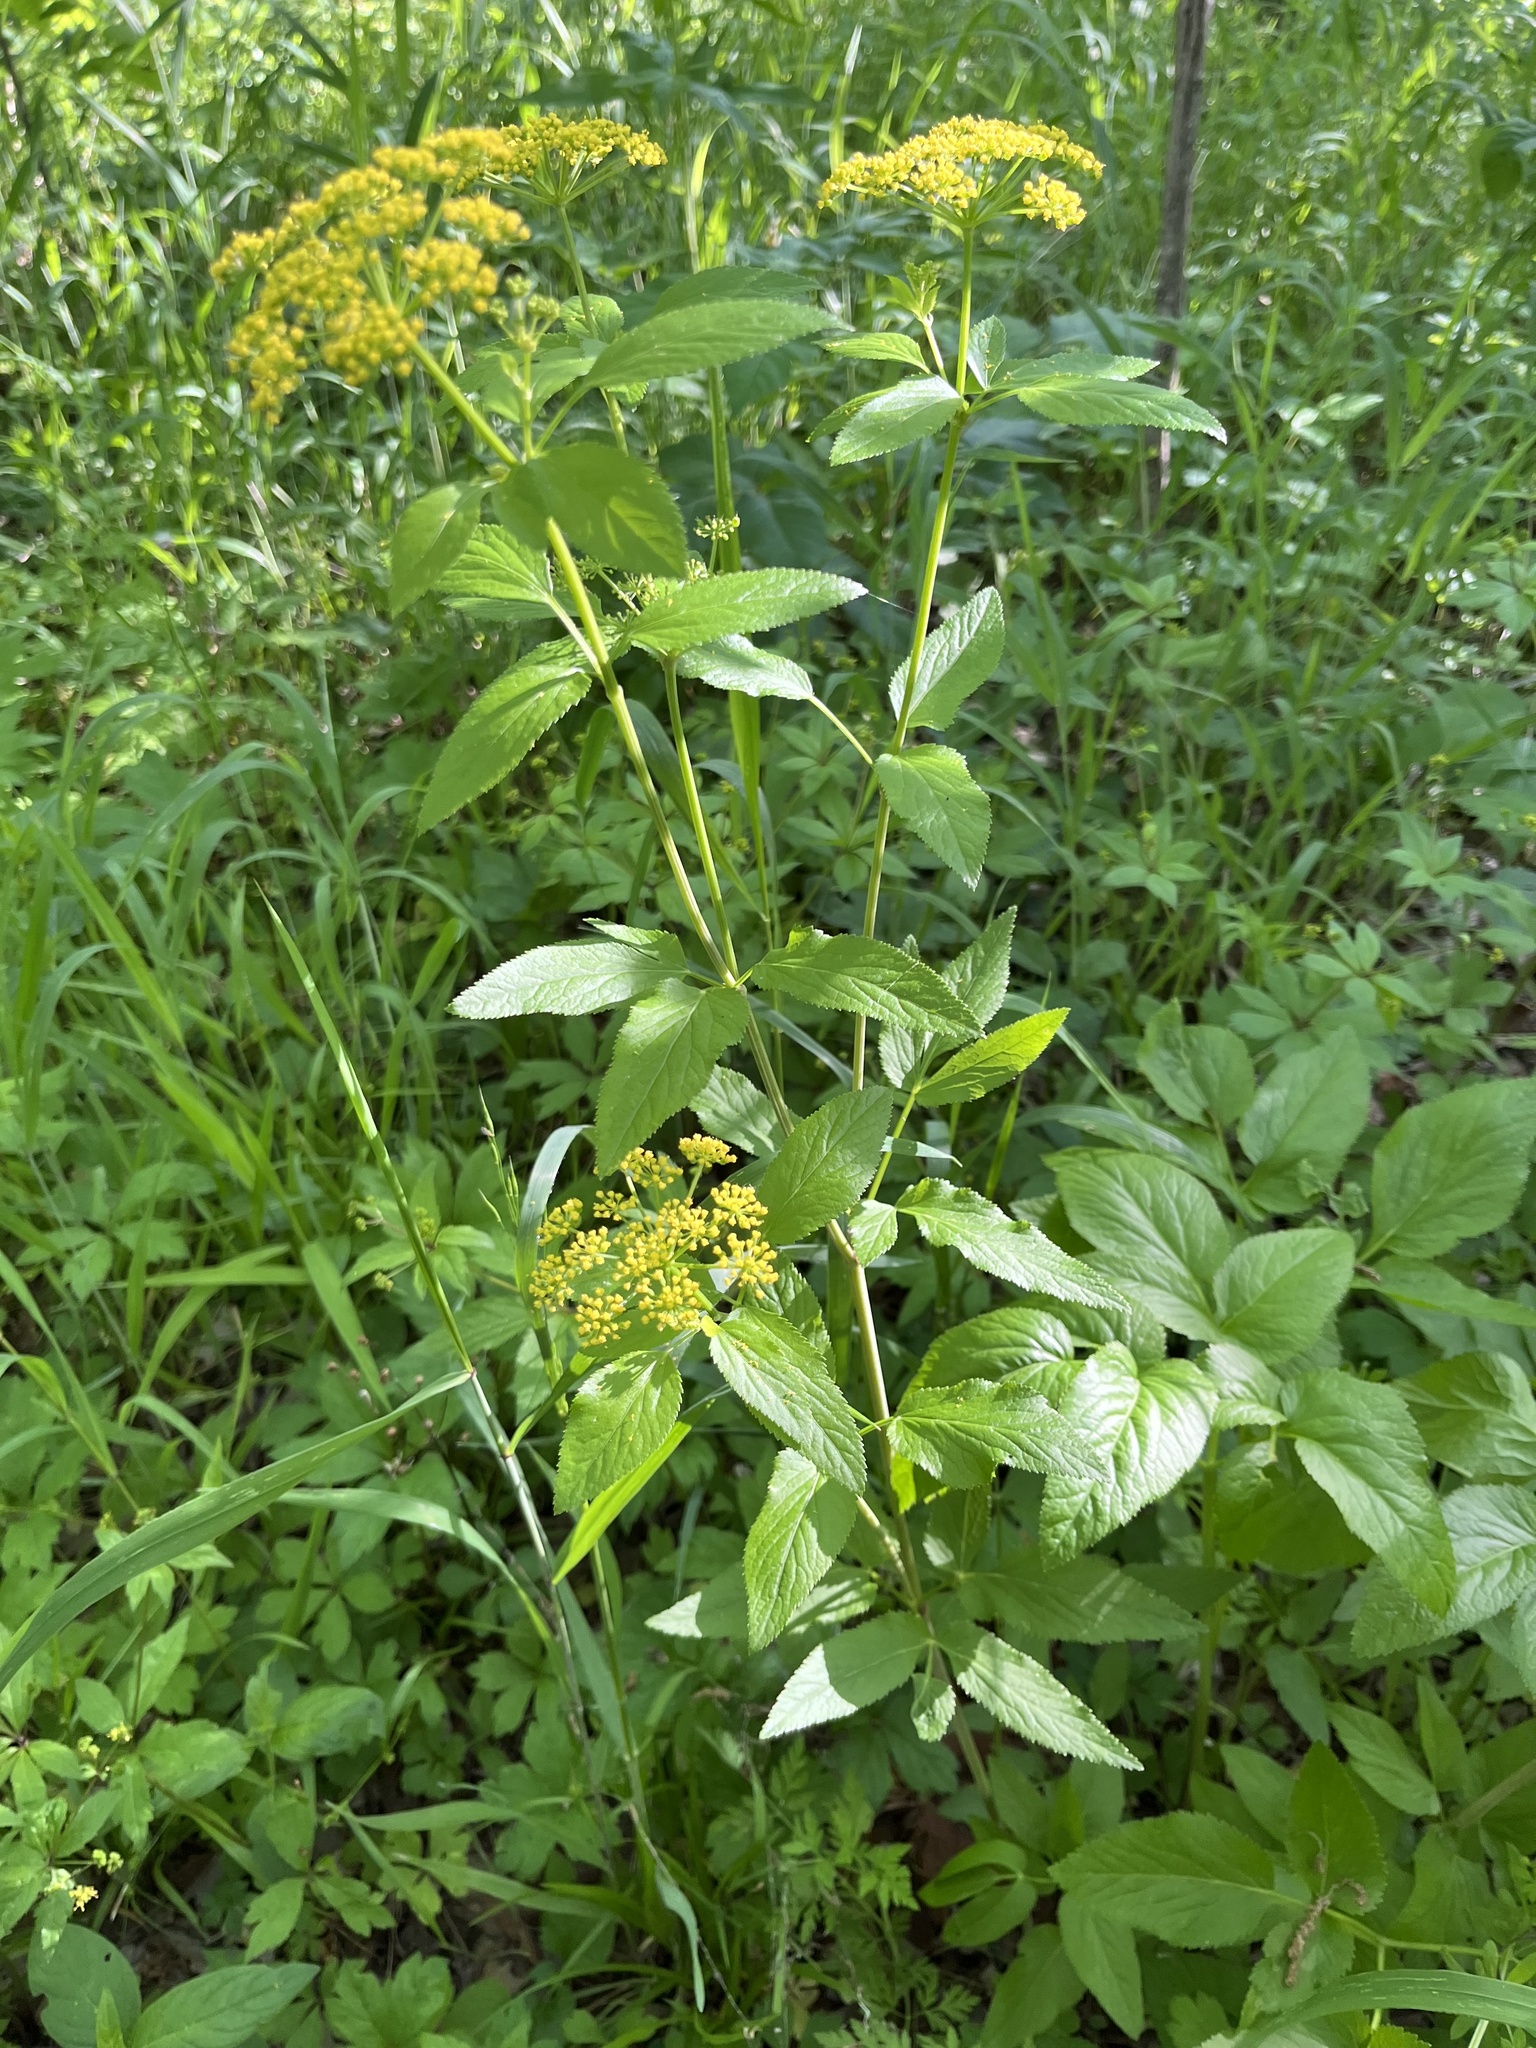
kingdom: Plantae
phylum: Tracheophyta
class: Magnoliopsida
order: Apiales
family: Apiaceae
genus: Zizia
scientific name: Zizia aurea
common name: Golden alexanders
